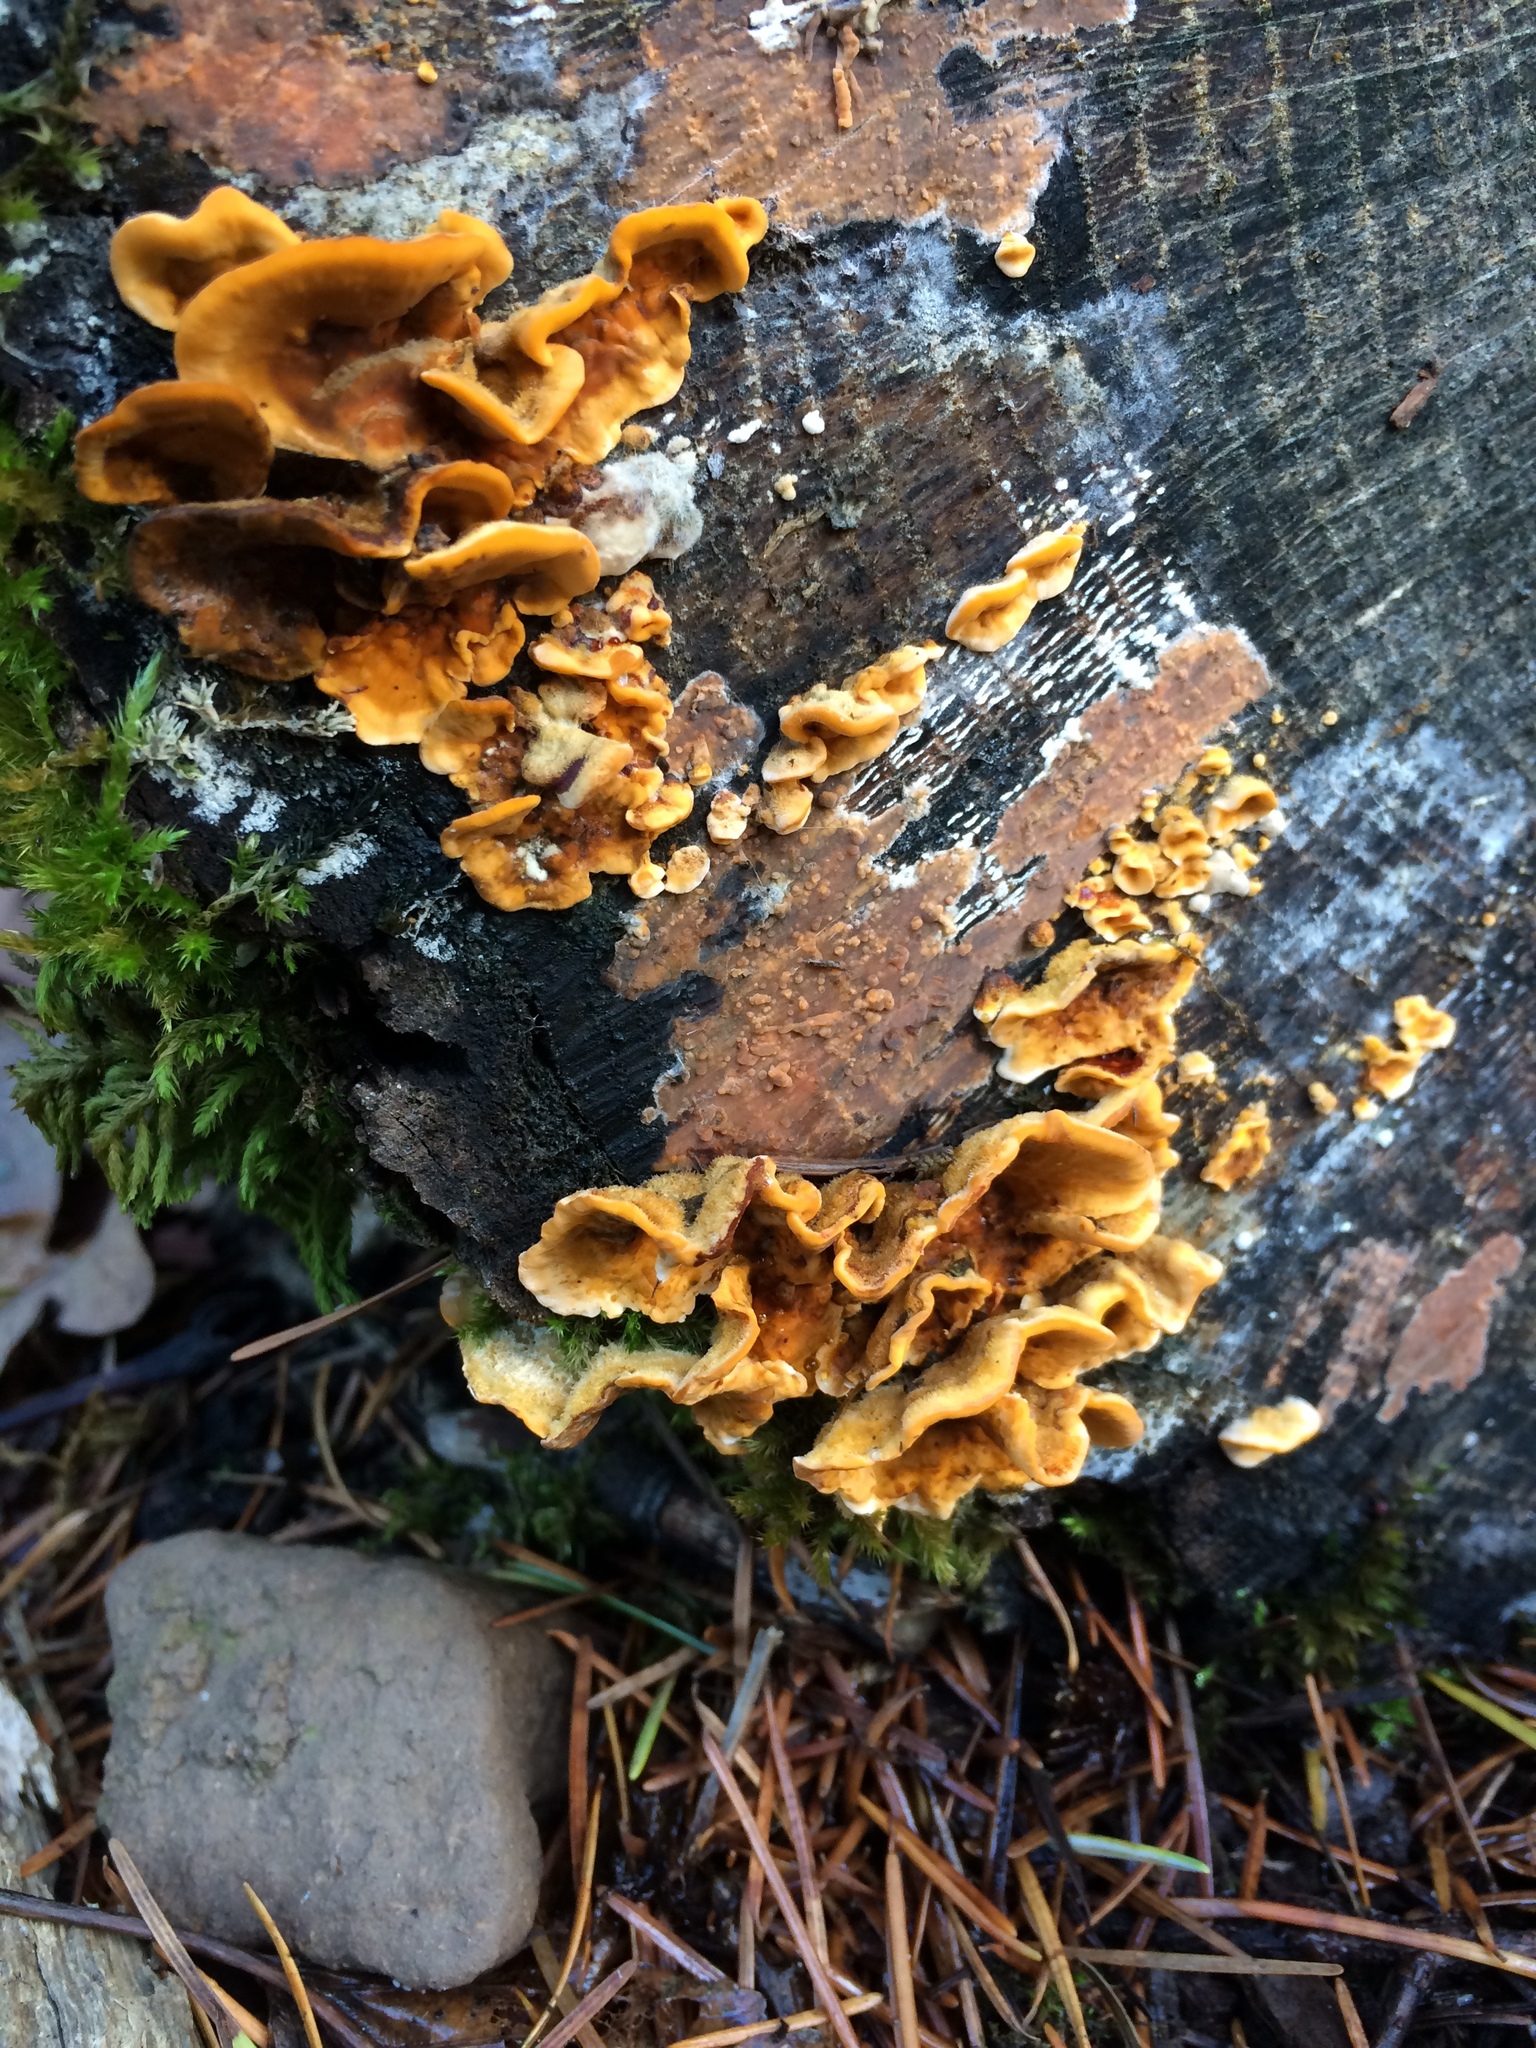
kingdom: Fungi
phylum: Basidiomycota
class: Agaricomycetes
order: Russulales
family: Stereaceae
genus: Stereum
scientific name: Stereum hirsutum
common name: Hairy curtain crust
